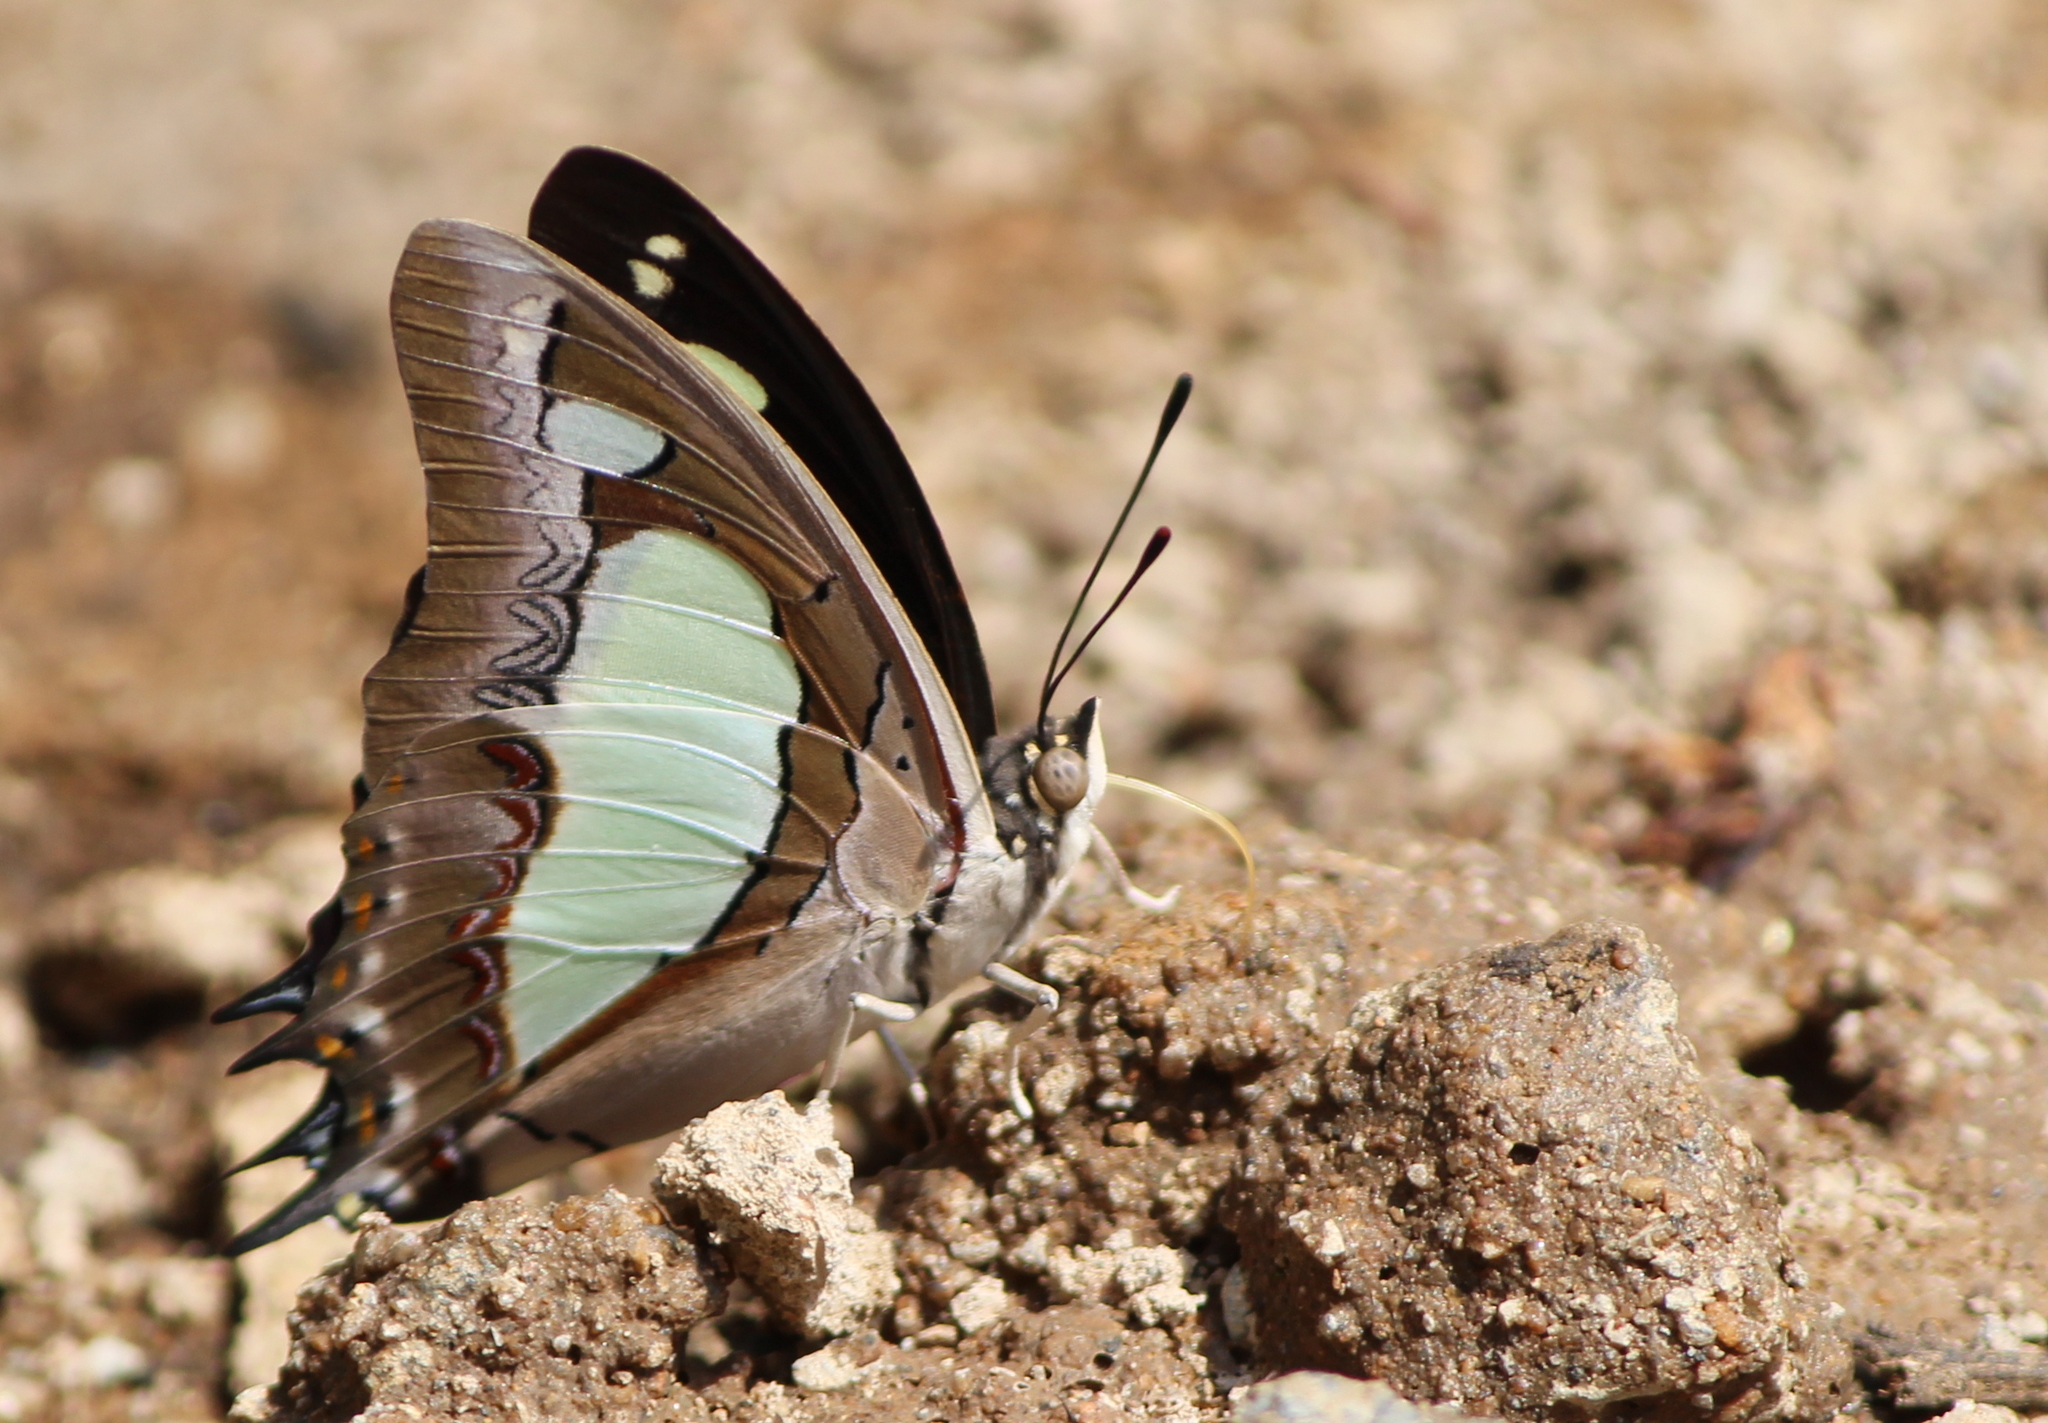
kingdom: Animalia
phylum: Arthropoda
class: Insecta
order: Lepidoptera
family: Nymphalidae
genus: Polyura
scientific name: Polyura agrarius
